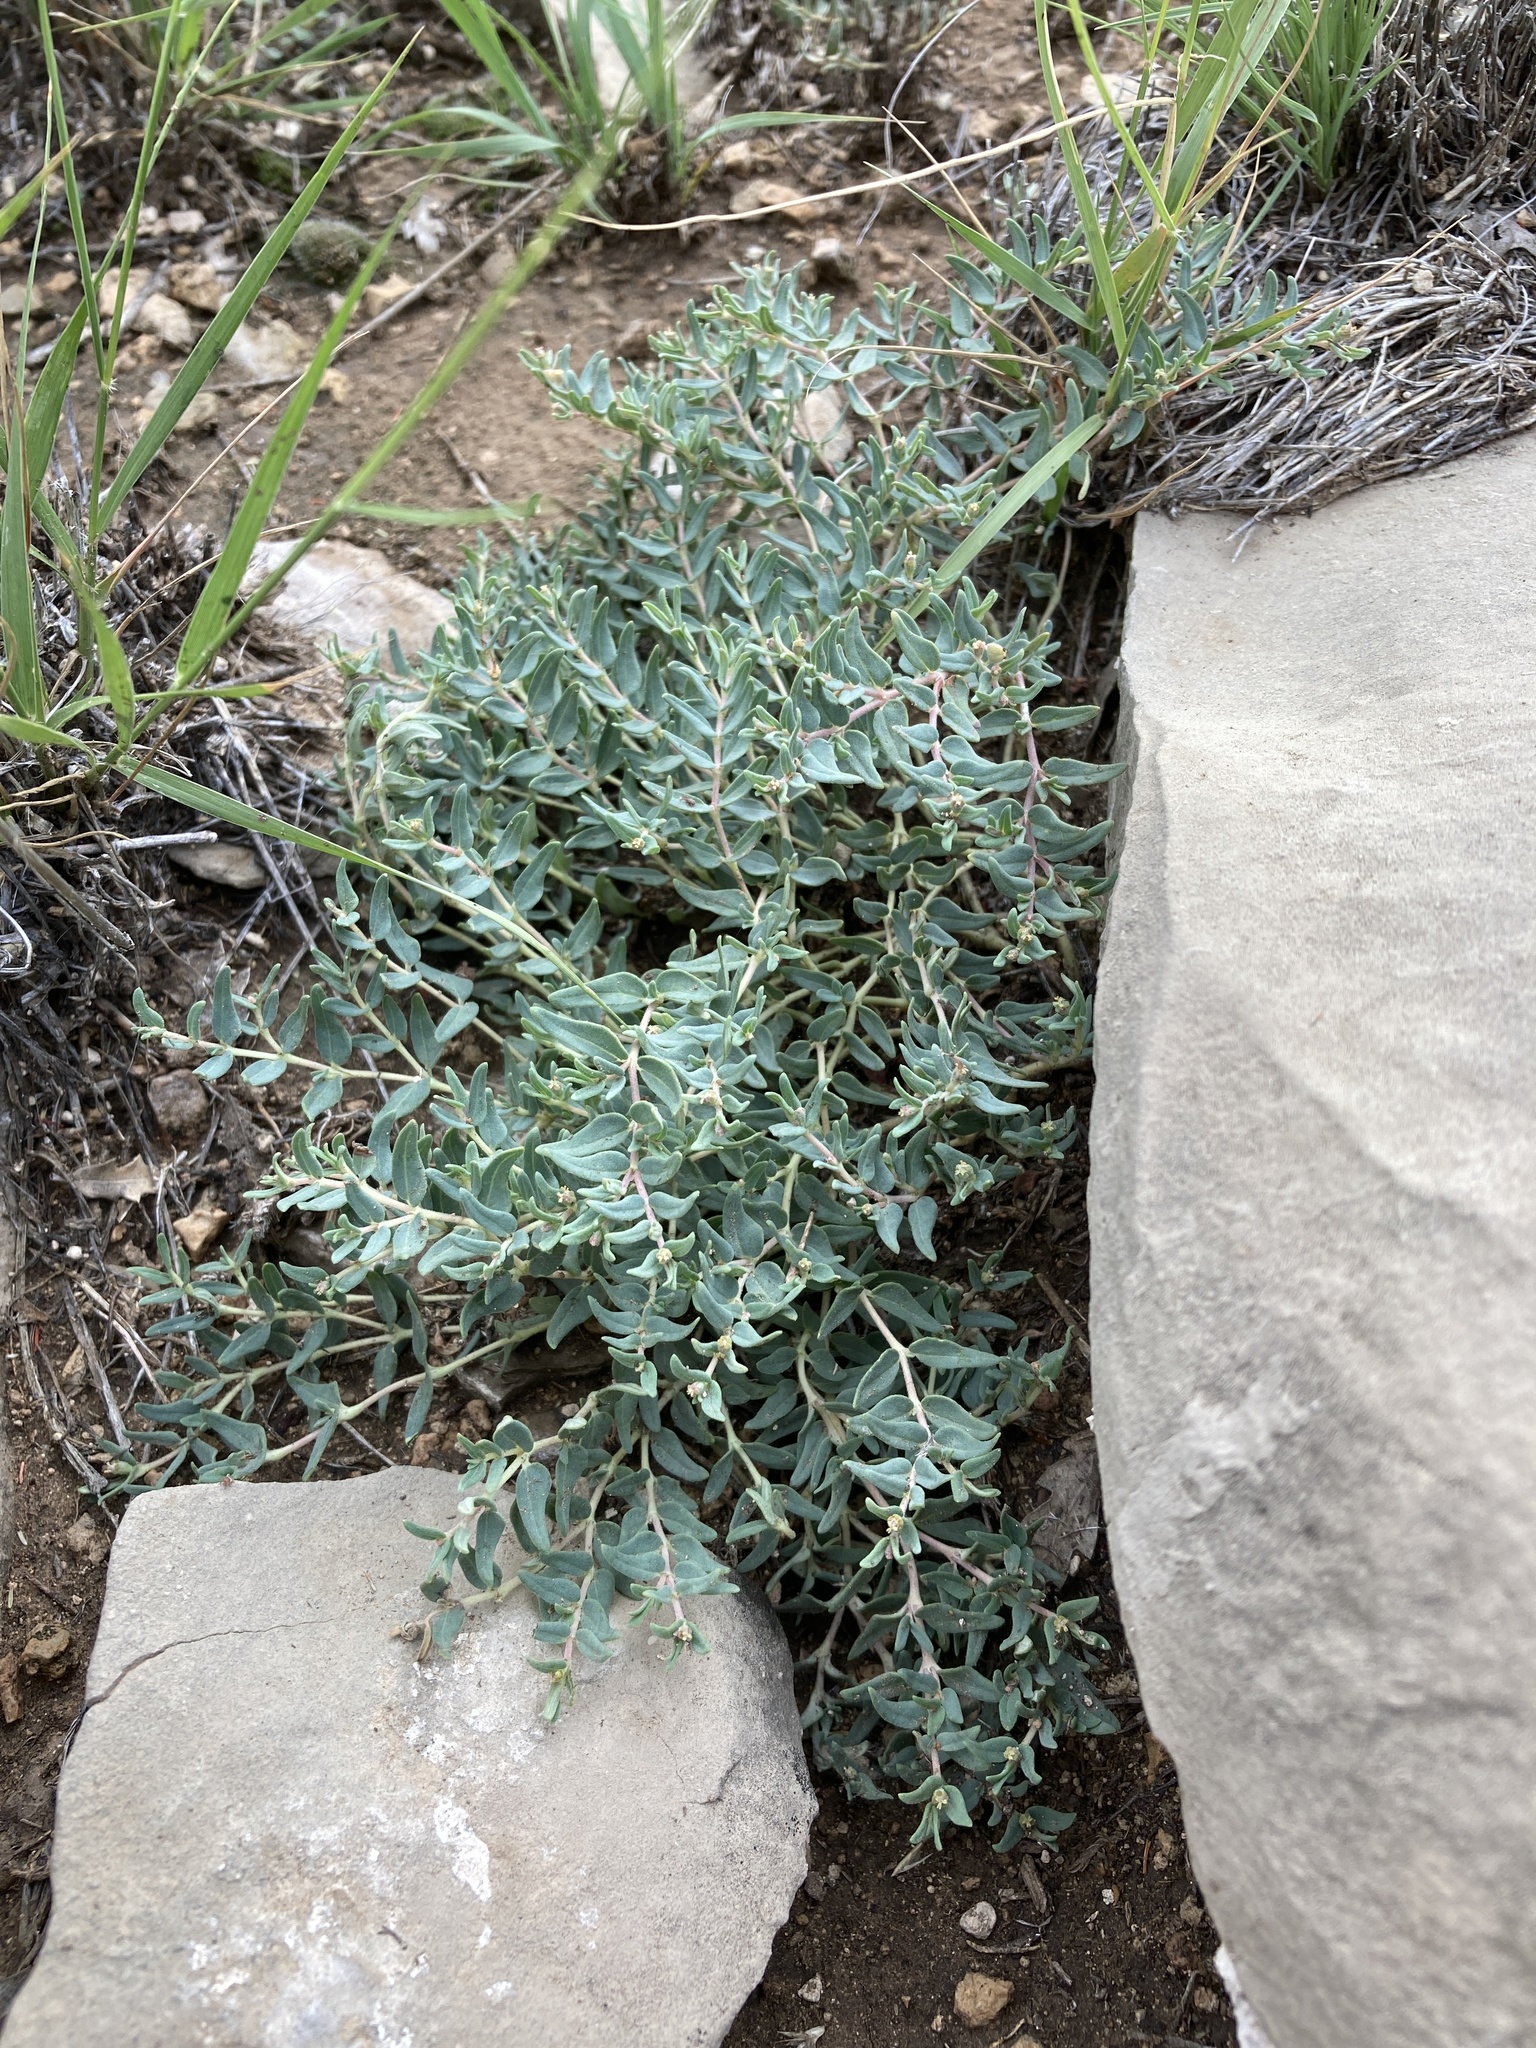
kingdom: Plantae
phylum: Tracheophyta
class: Magnoliopsida
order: Malpighiales
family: Euphorbiaceae
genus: Euphorbia
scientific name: Euphorbia lata
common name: Hoary euphorbia
